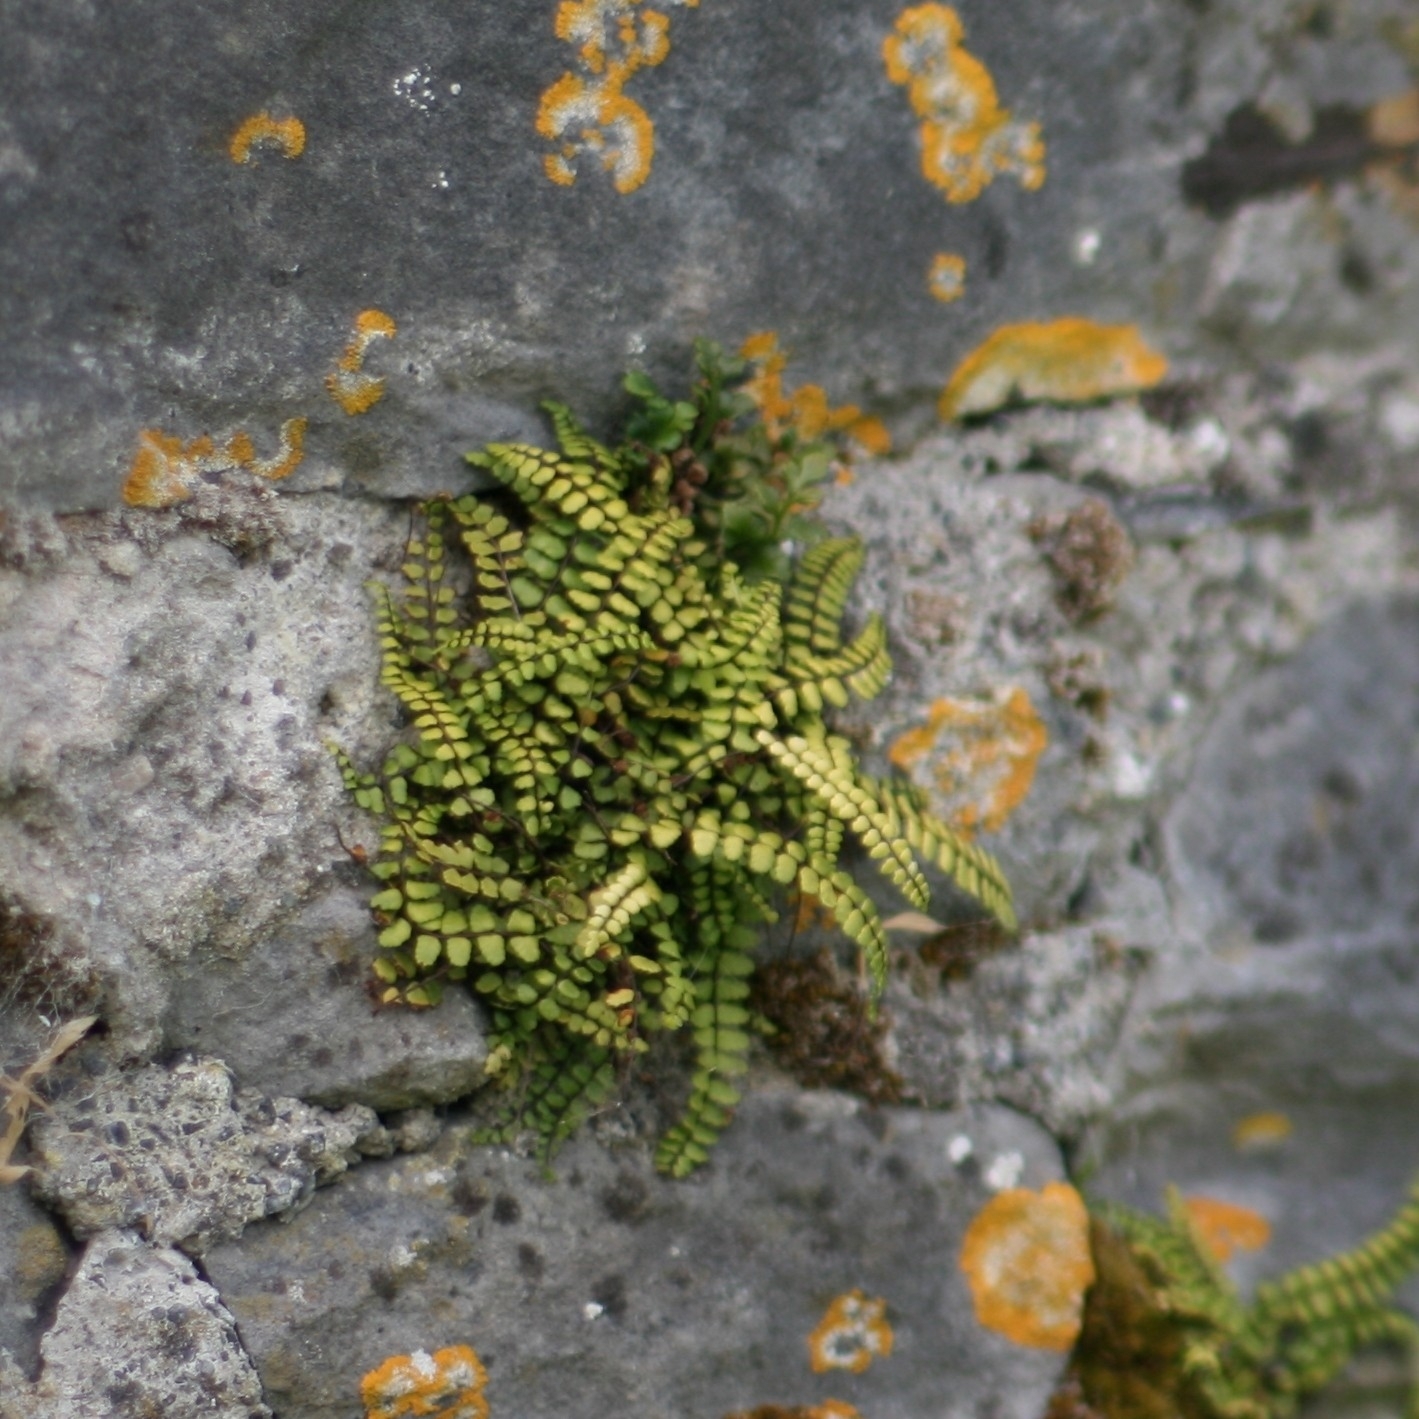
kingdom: Plantae
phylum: Tracheophyta
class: Polypodiopsida
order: Polypodiales
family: Aspleniaceae
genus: Asplenium
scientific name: Asplenium trichomanes
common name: Maidenhair spleenwort
